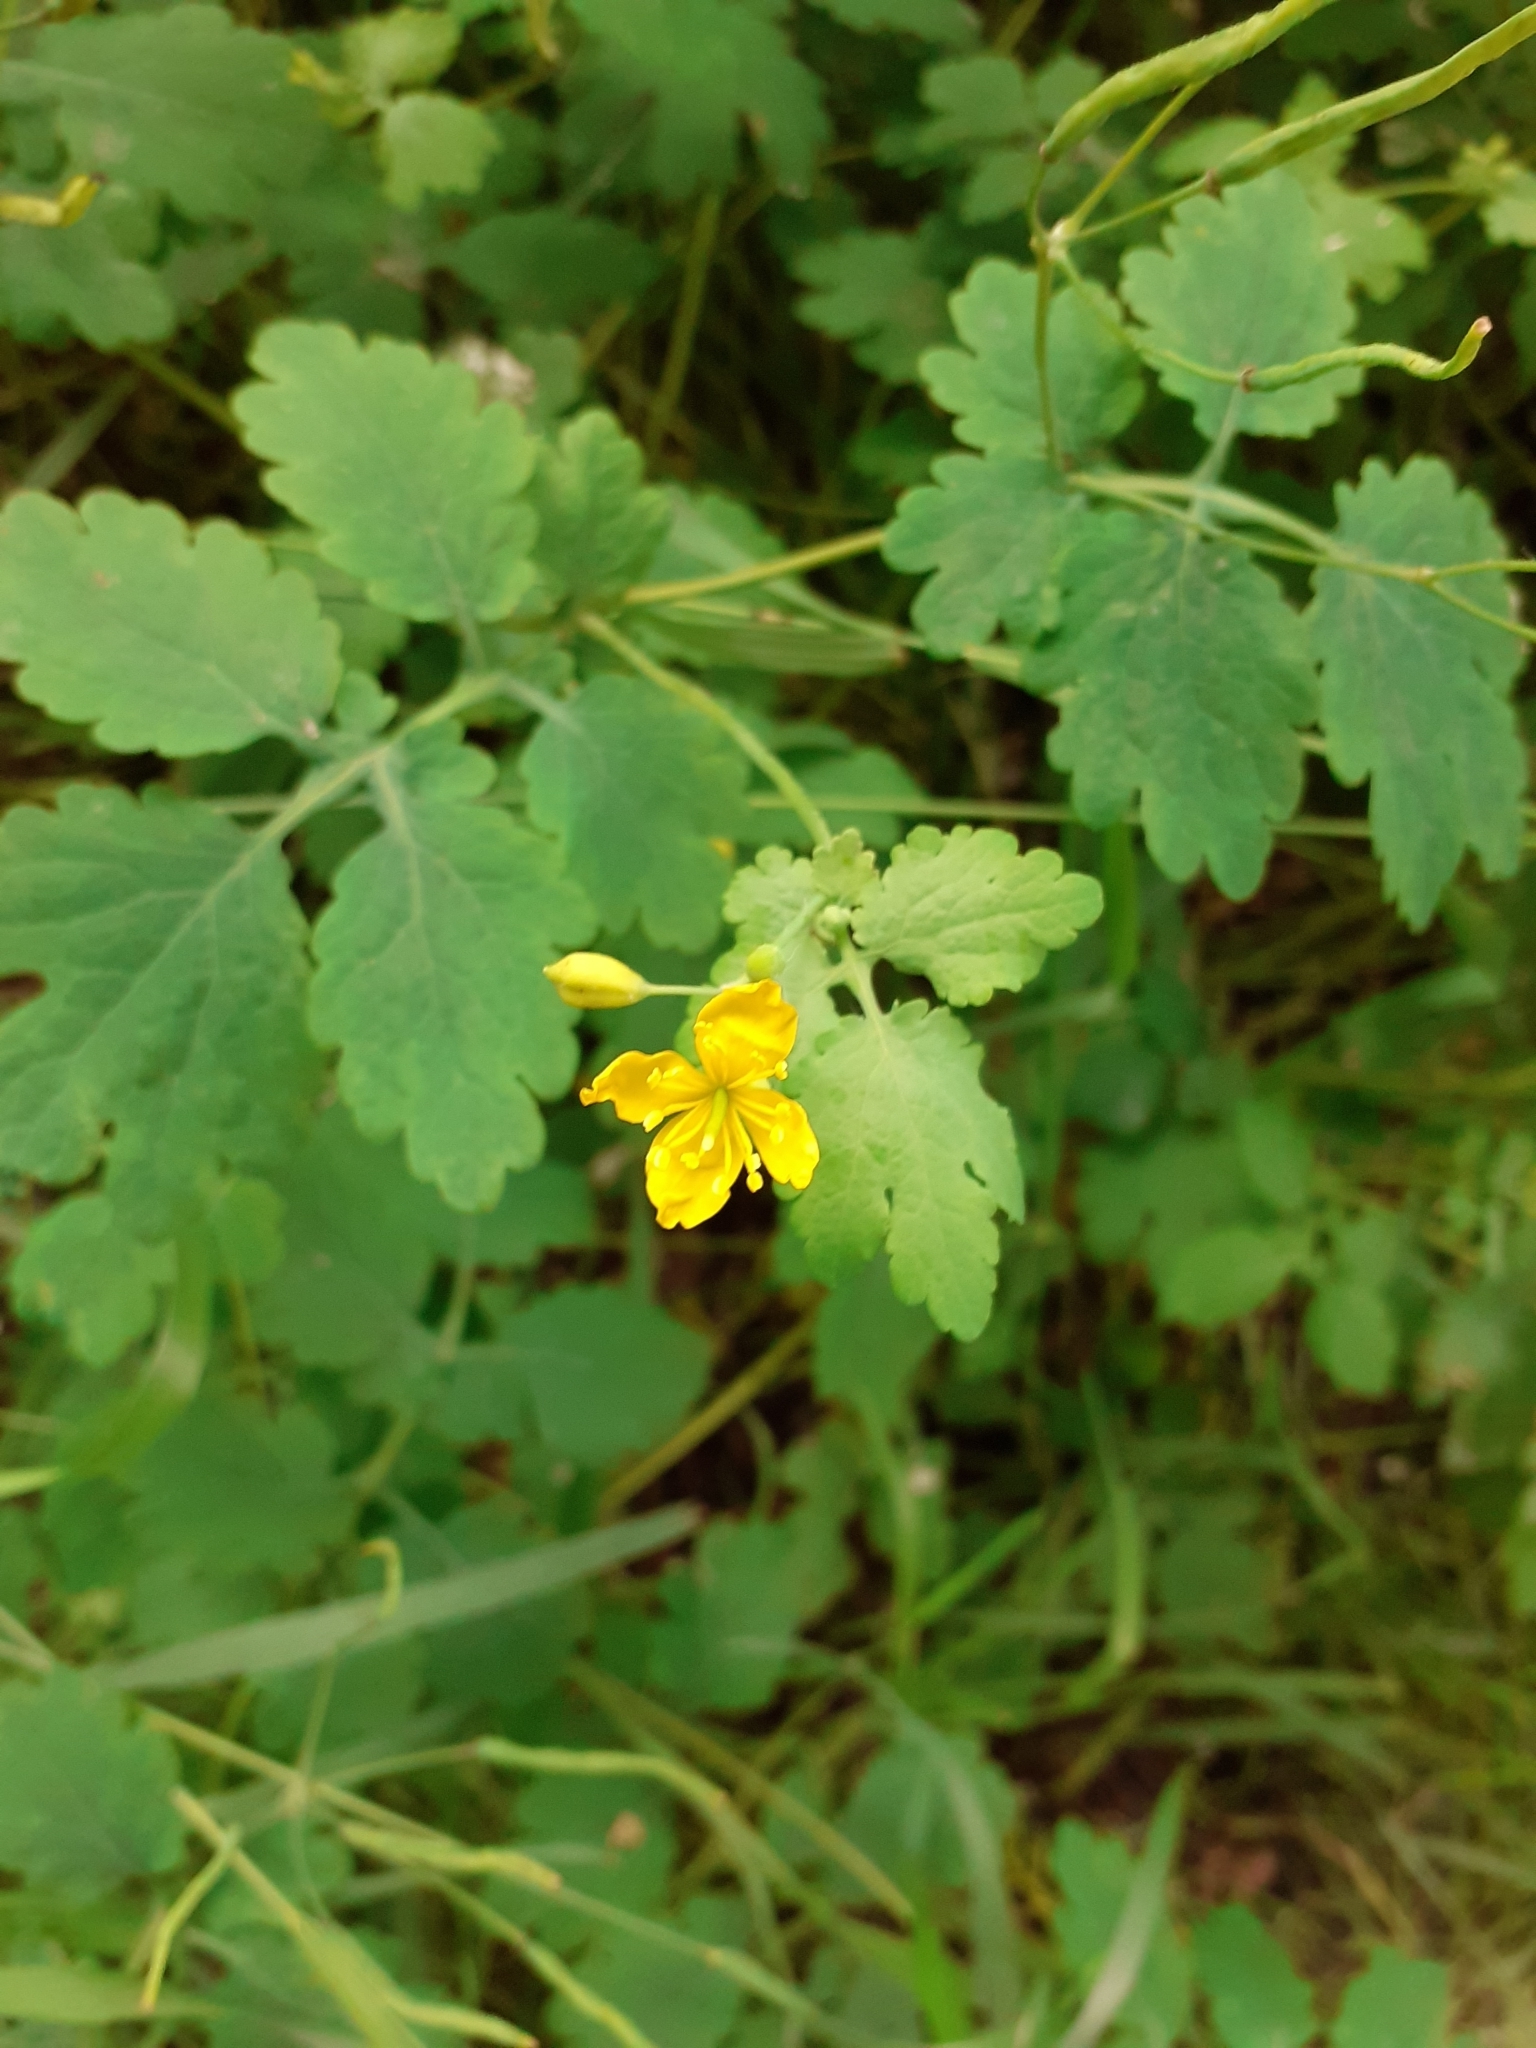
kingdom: Plantae
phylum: Tracheophyta
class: Magnoliopsida
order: Ranunculales
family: Papaveraceae
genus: Chelidonium
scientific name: Chelidonium majus
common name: Greater celandine
